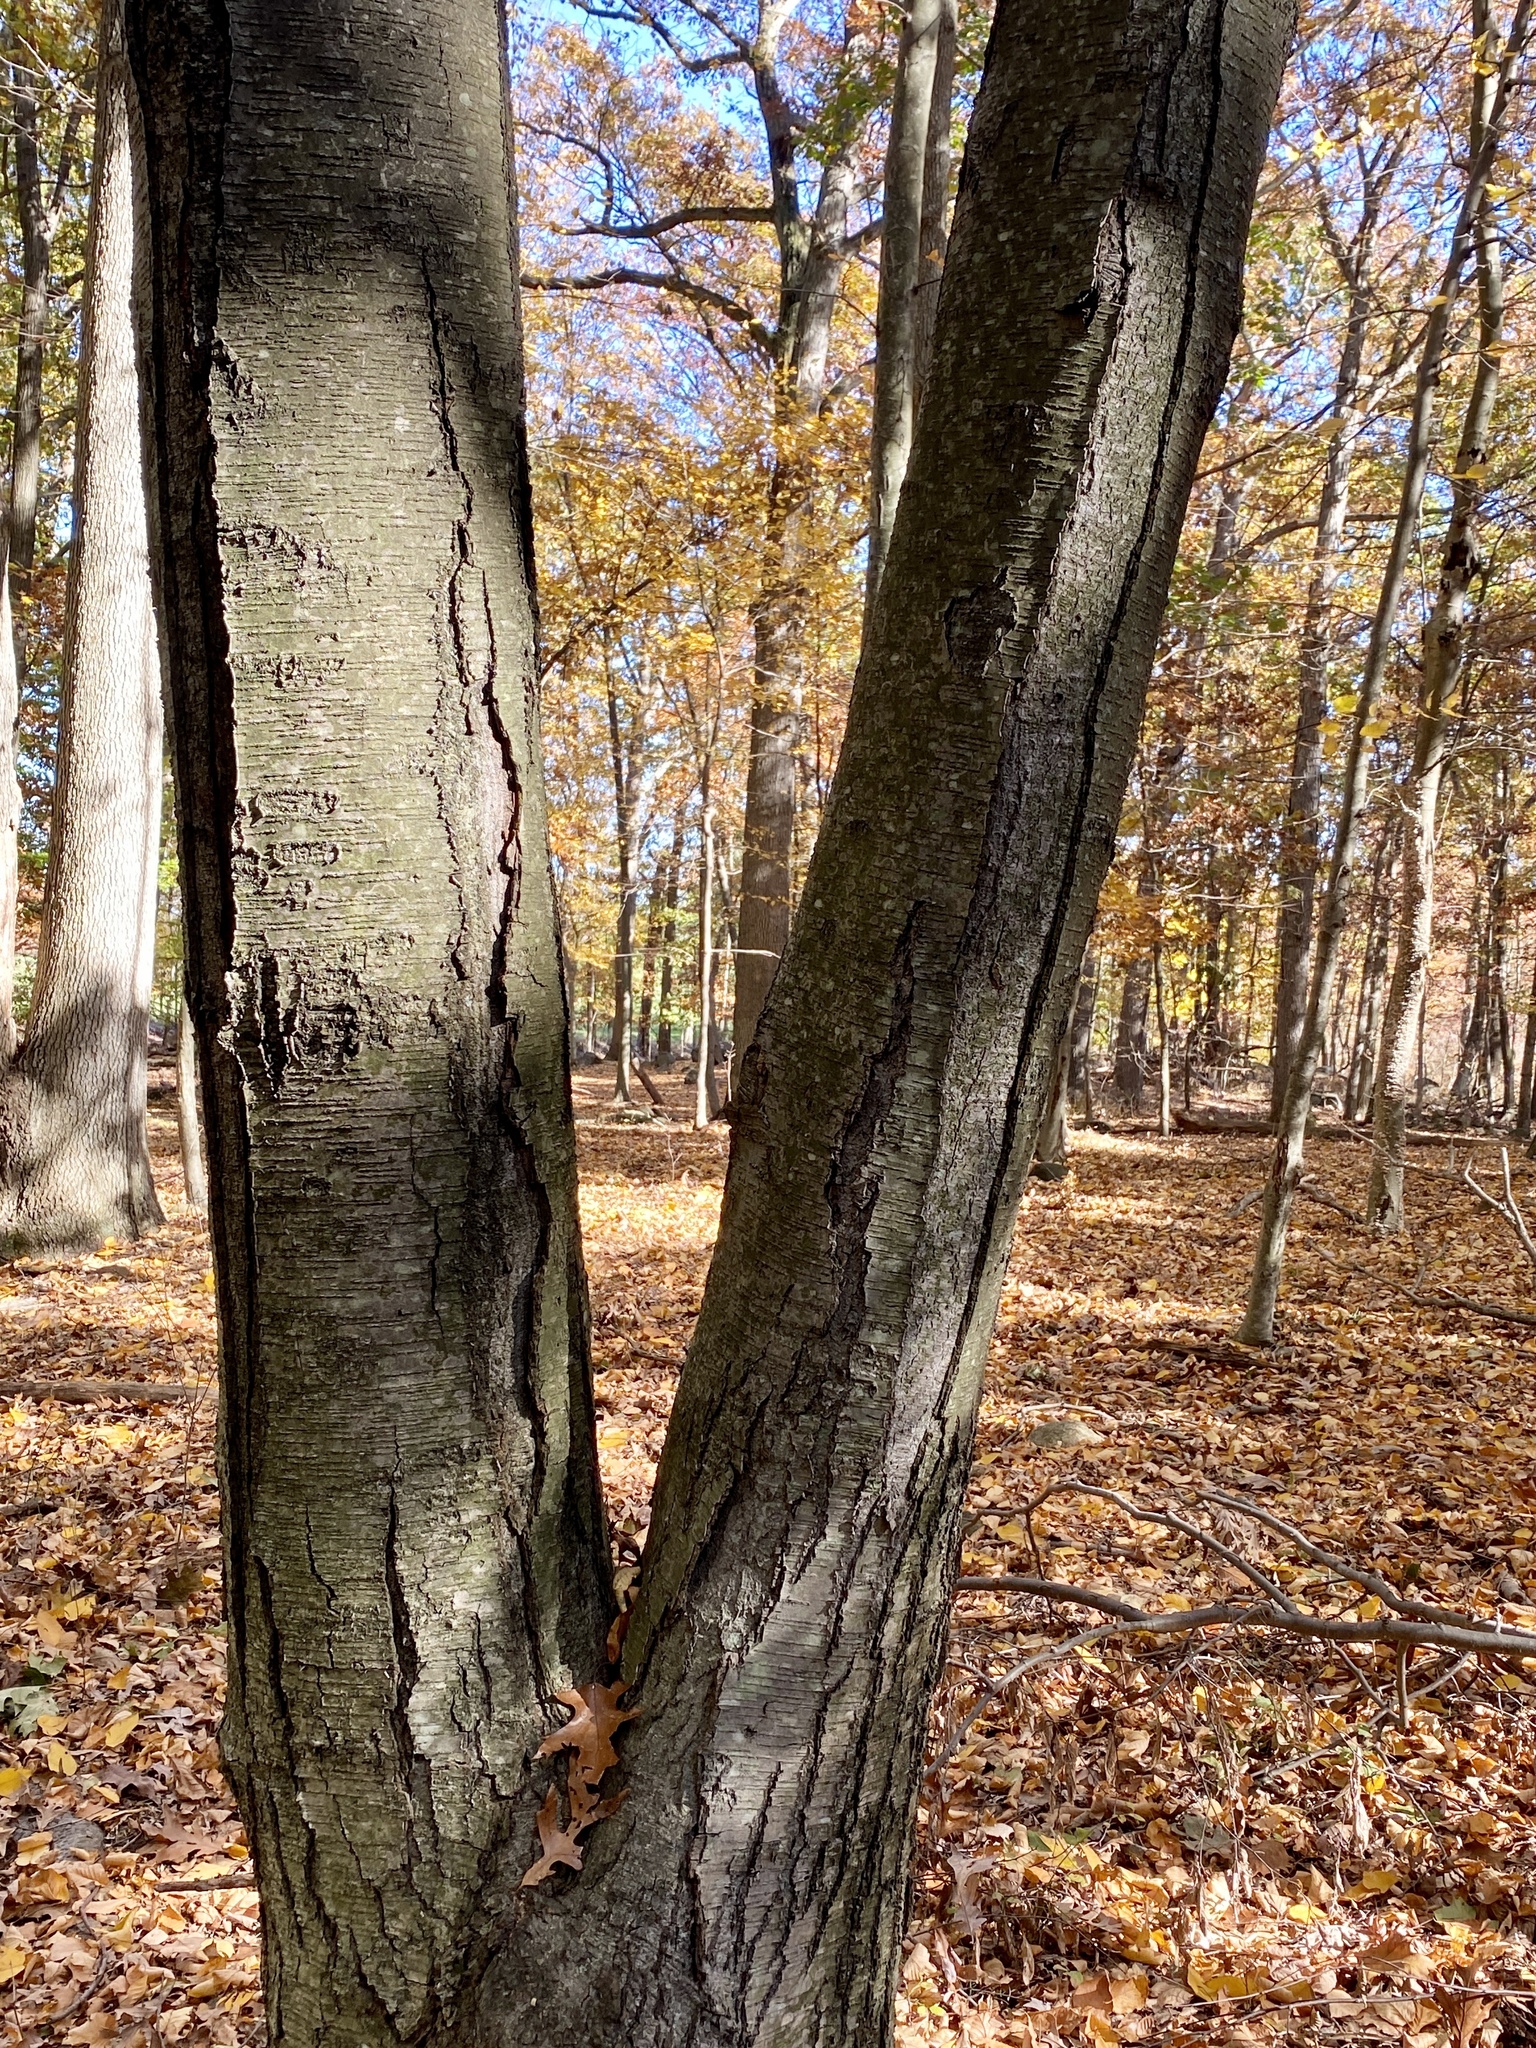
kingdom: Plantae
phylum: Tracheophyta
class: Magnoliopsida
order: Fagales
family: Betulaceae
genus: Betula
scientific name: Betula lenta
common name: Black birch
